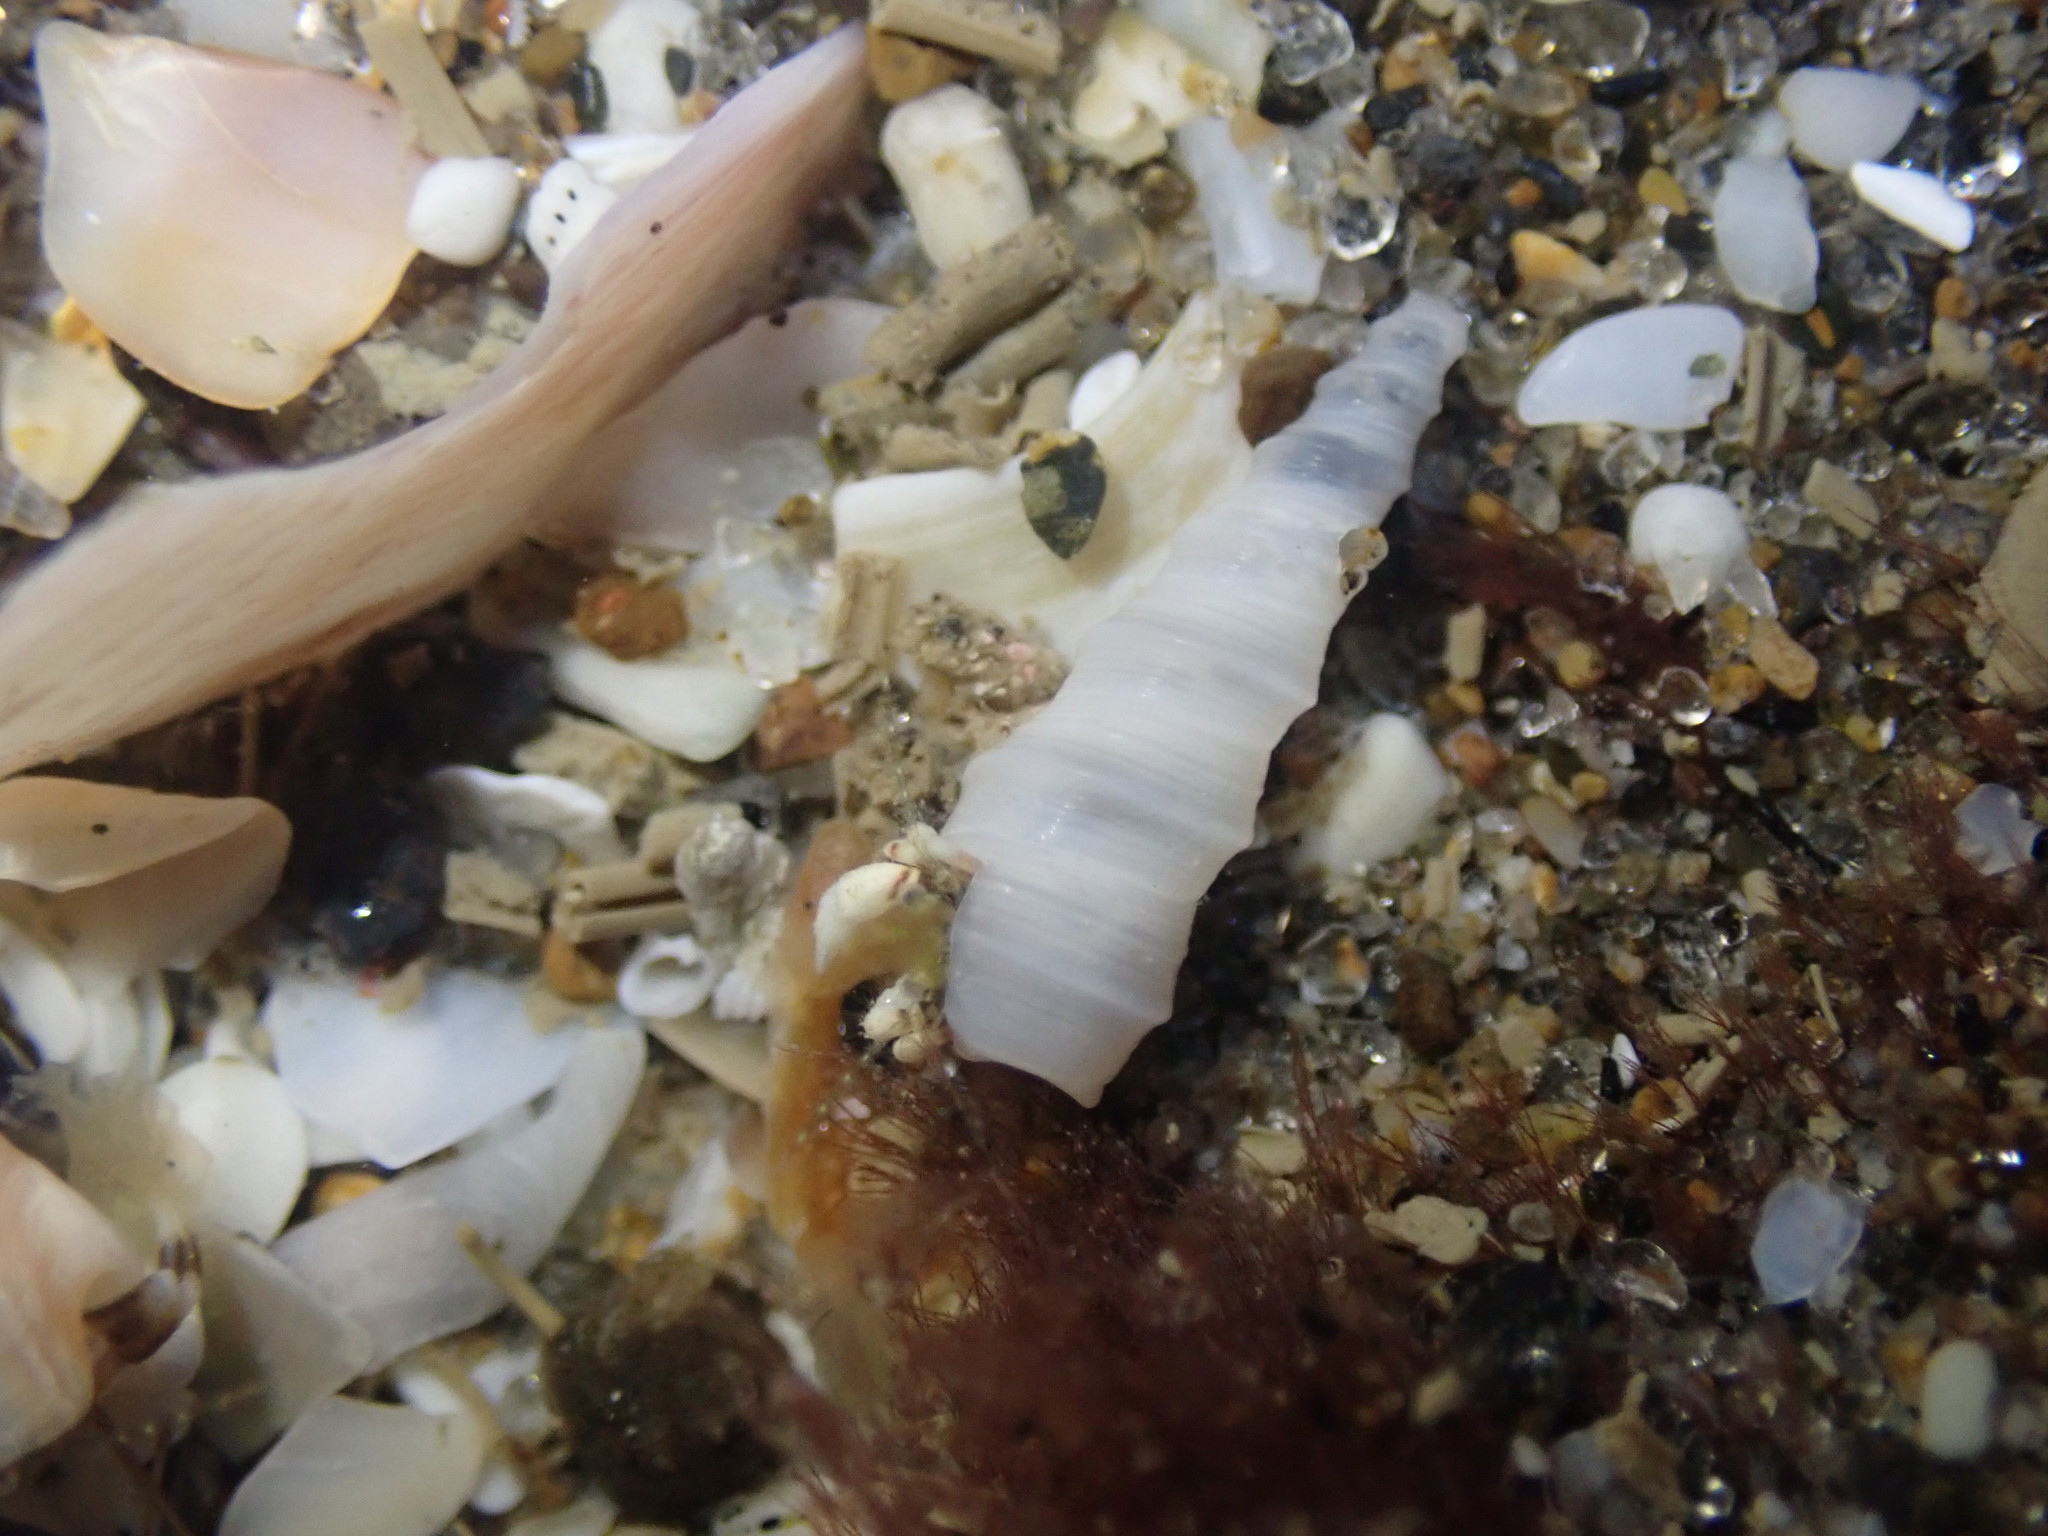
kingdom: Animalia
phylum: Mollusca
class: Gastropoda
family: Turritellidae
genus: Stiracolpus
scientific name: Stiracolpus ahiparanus
